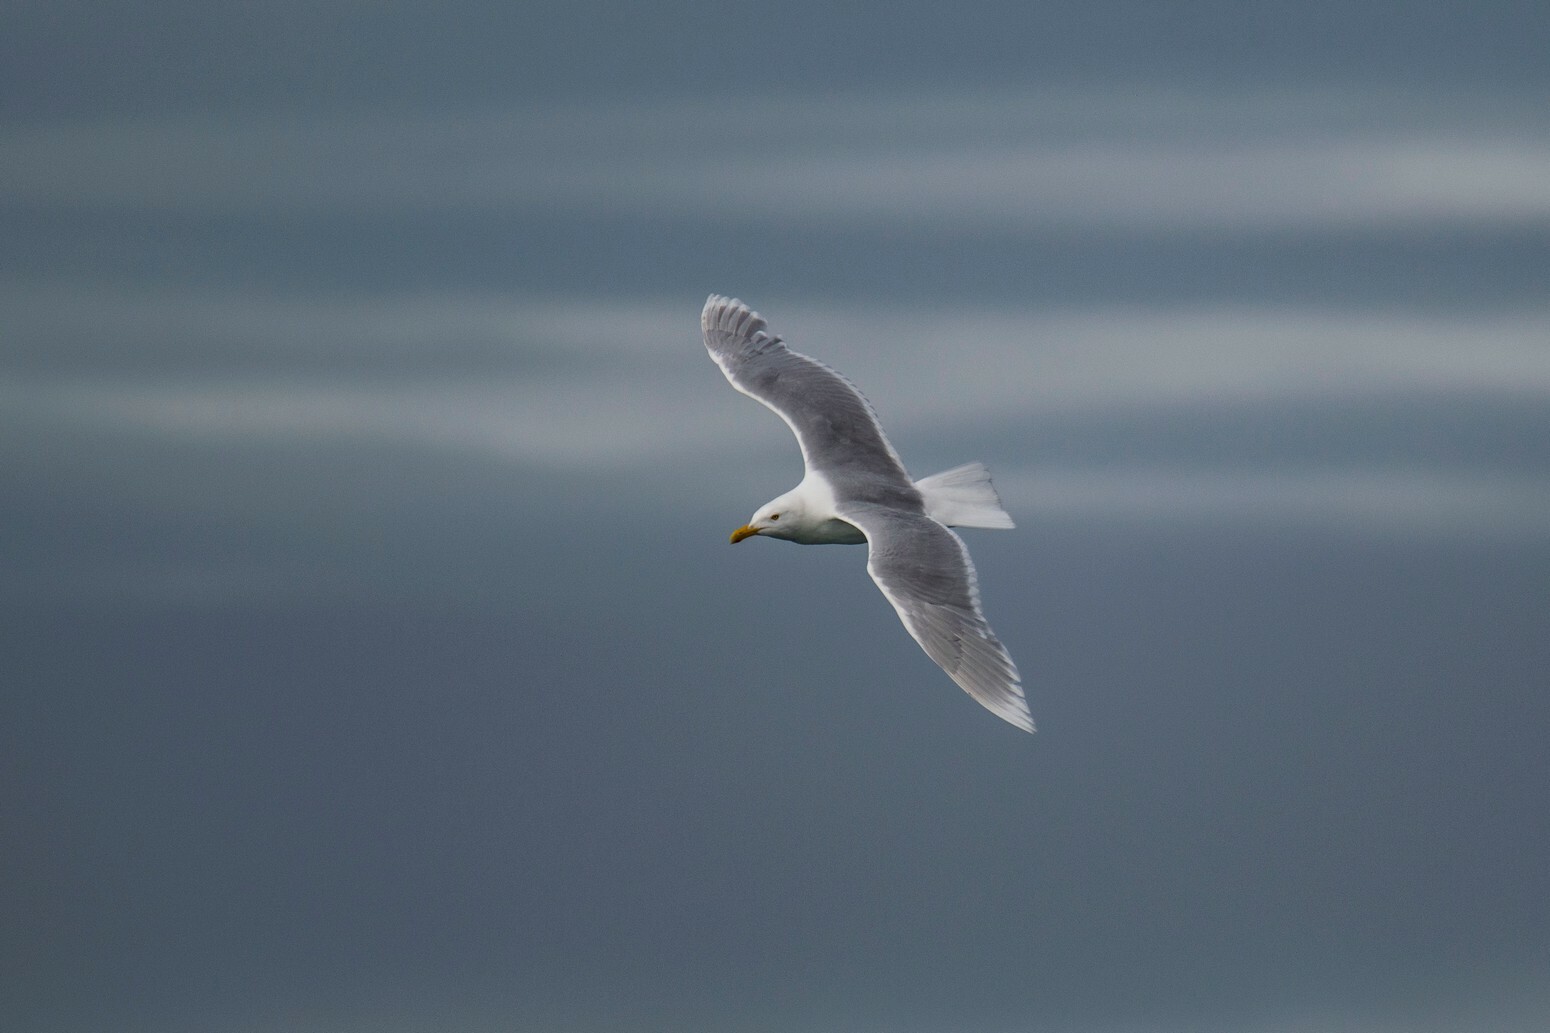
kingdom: Animalia
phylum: Chordata
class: Aves
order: Charadriiformes
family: Laridae
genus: Larus
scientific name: Larus hyperboreus
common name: Glaucous gull
